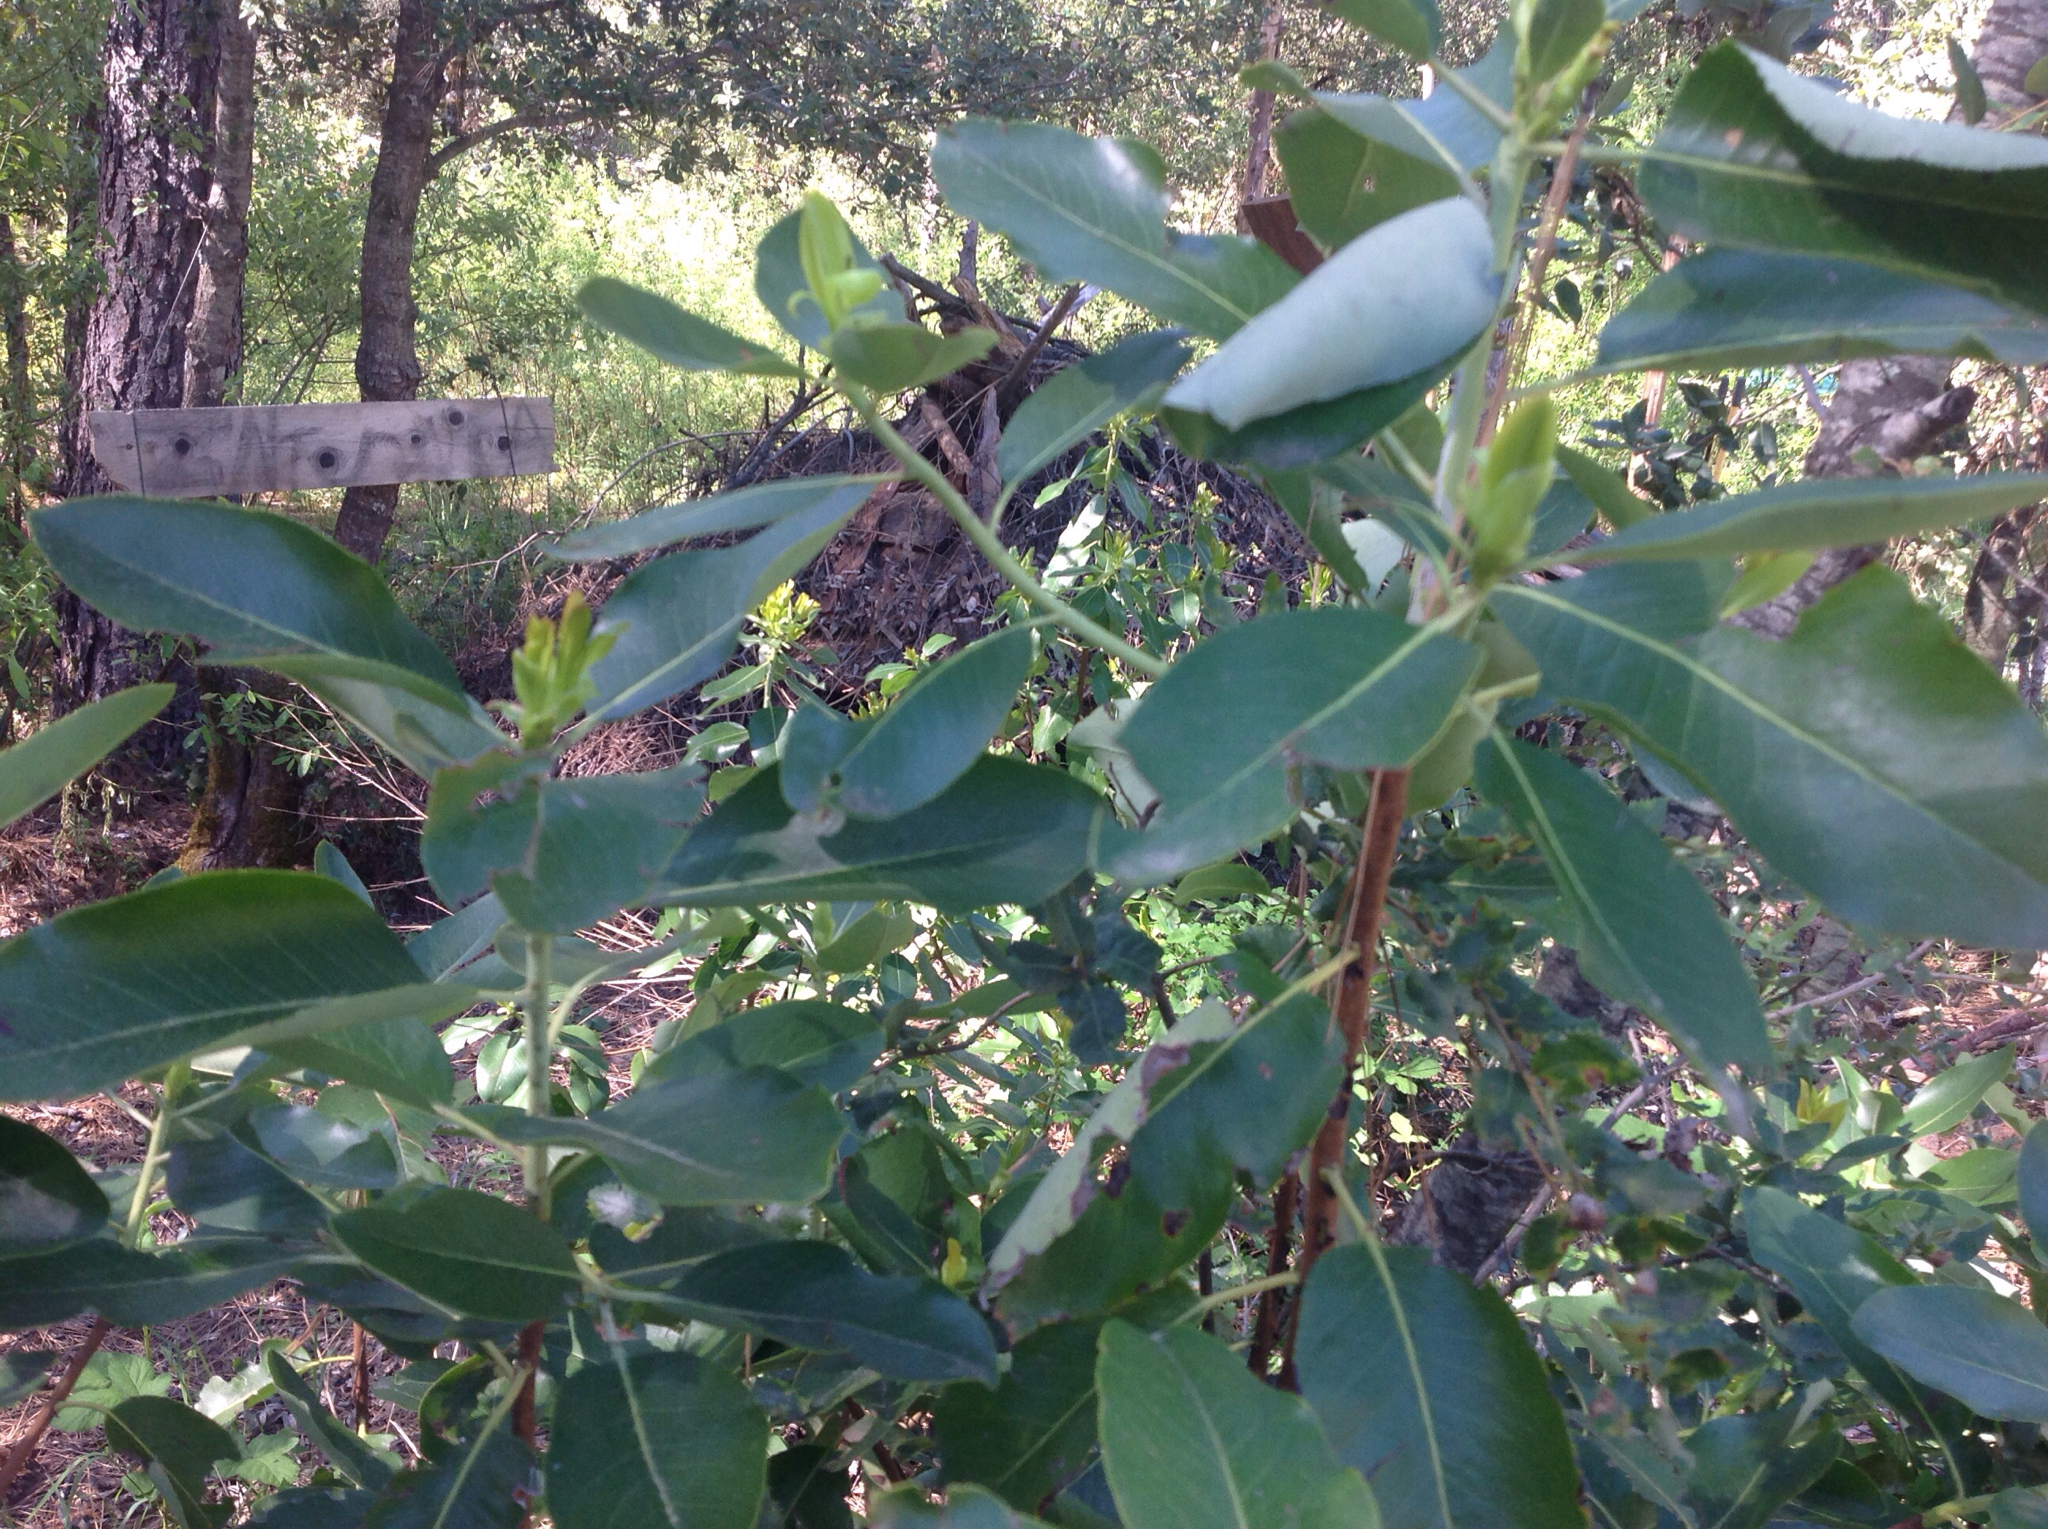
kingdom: Plantae
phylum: Tracheophyta
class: Magnoliopsida
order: Ericales
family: Ericaceae
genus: Arbutus
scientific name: Arbutus menziesii
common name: Pacific madrone
